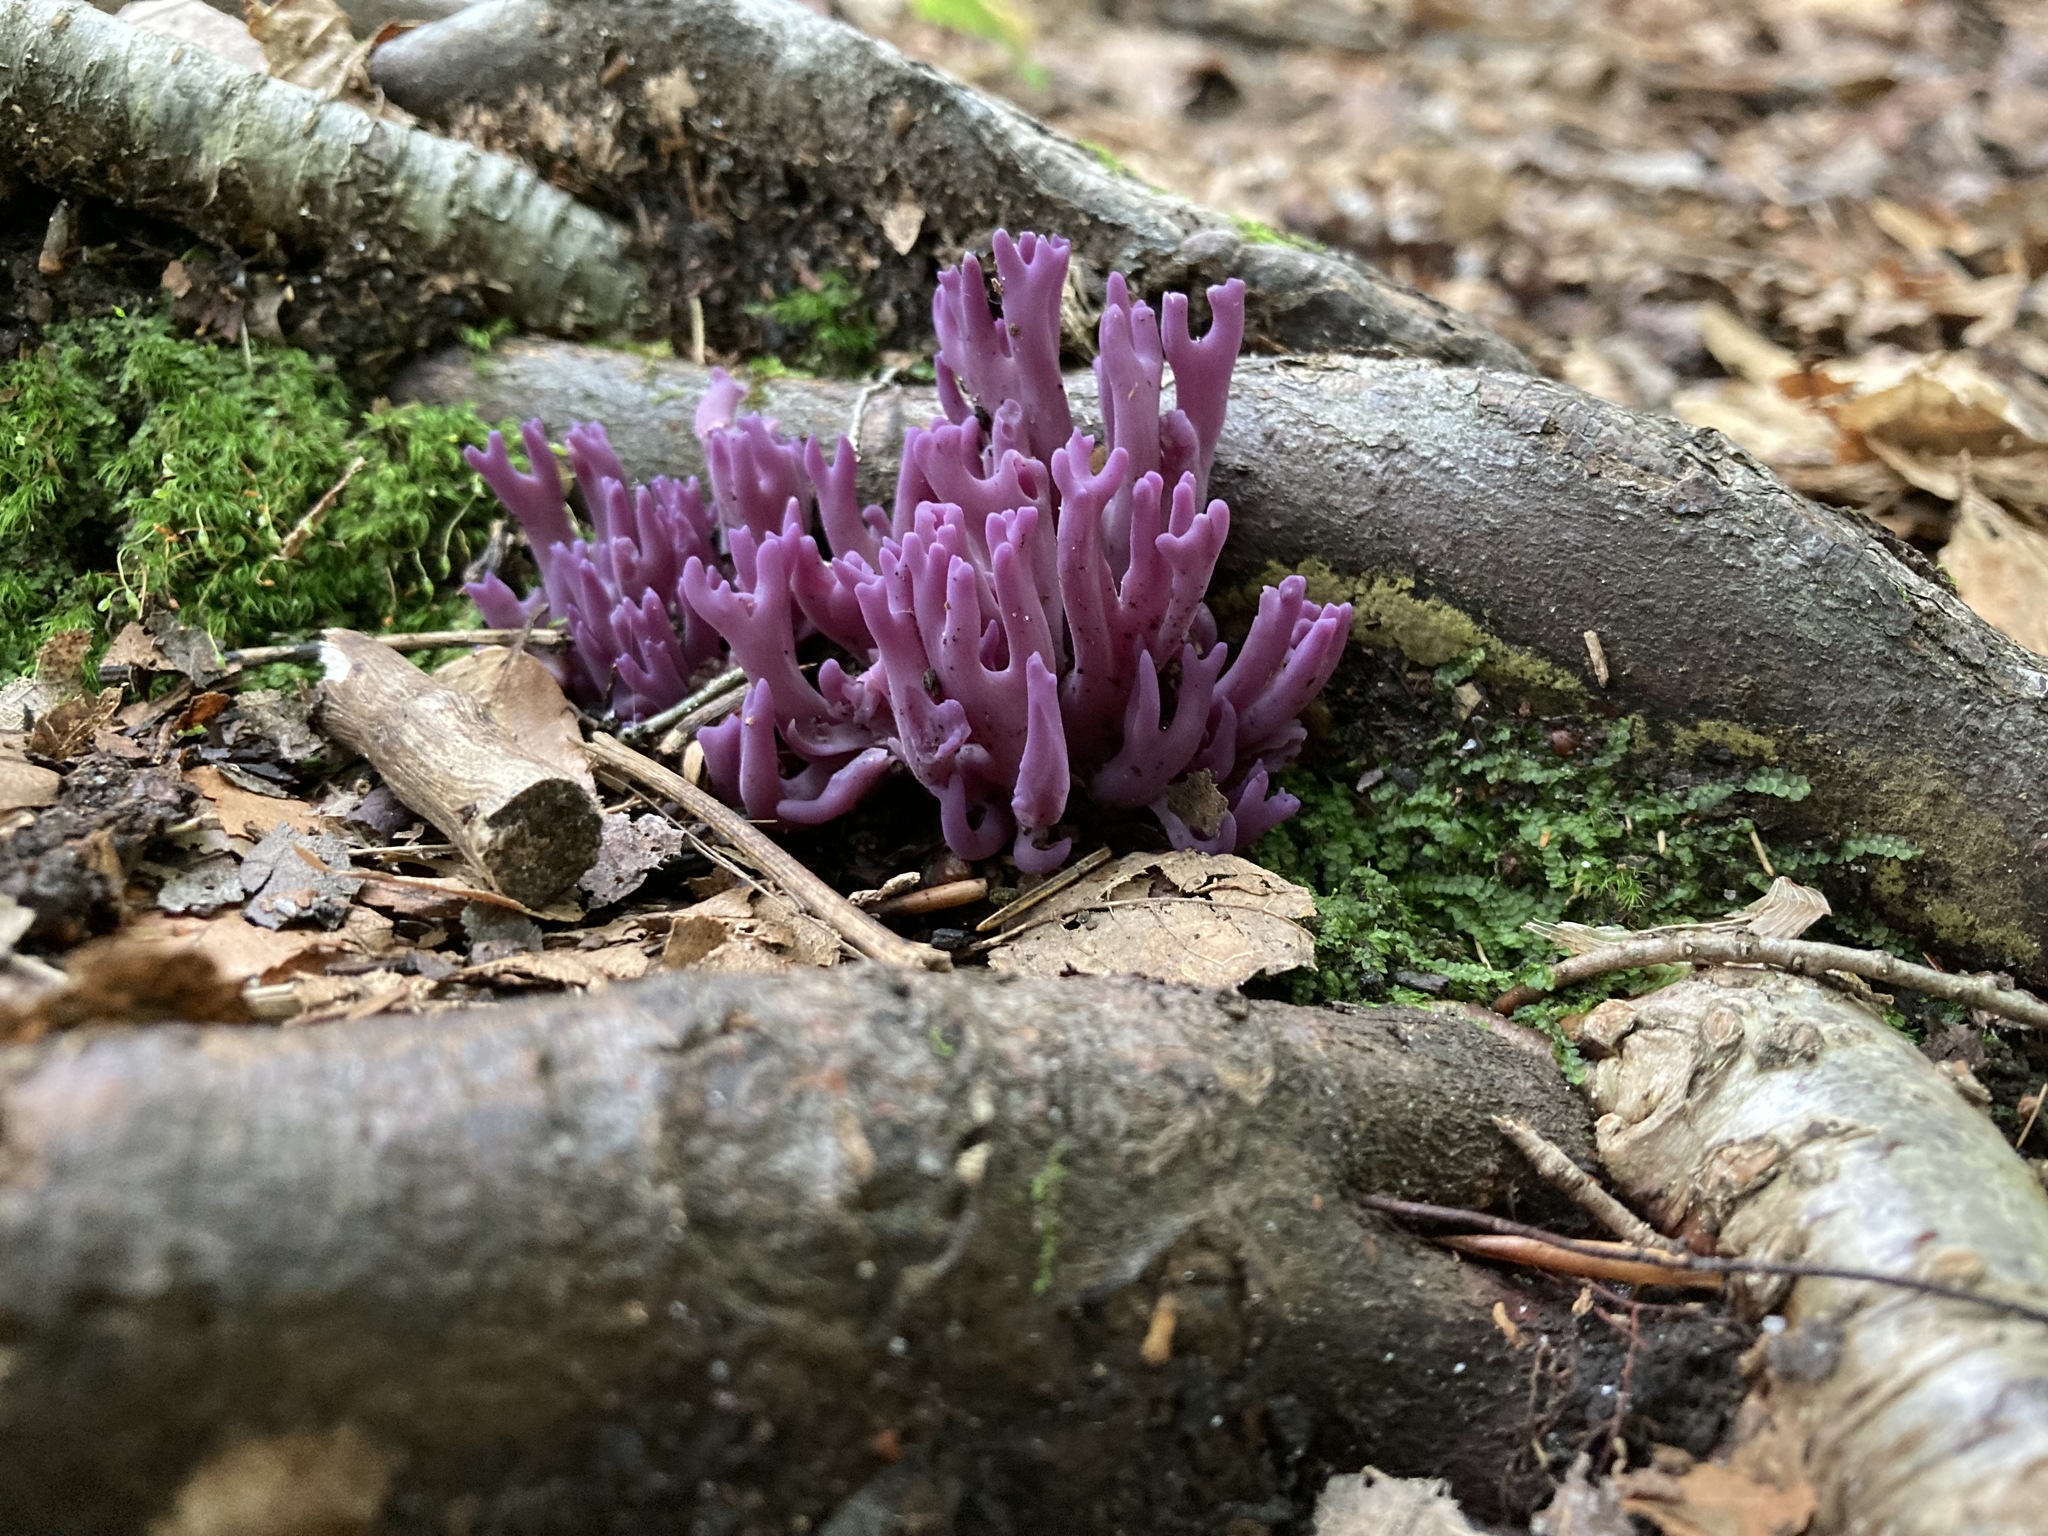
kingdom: Fungi
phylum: Basidiomycota
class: Agaricomycetes
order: Agaricales
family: Clavariaceae
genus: Clavaria
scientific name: Clavaria zollingeri
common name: Violet coral
